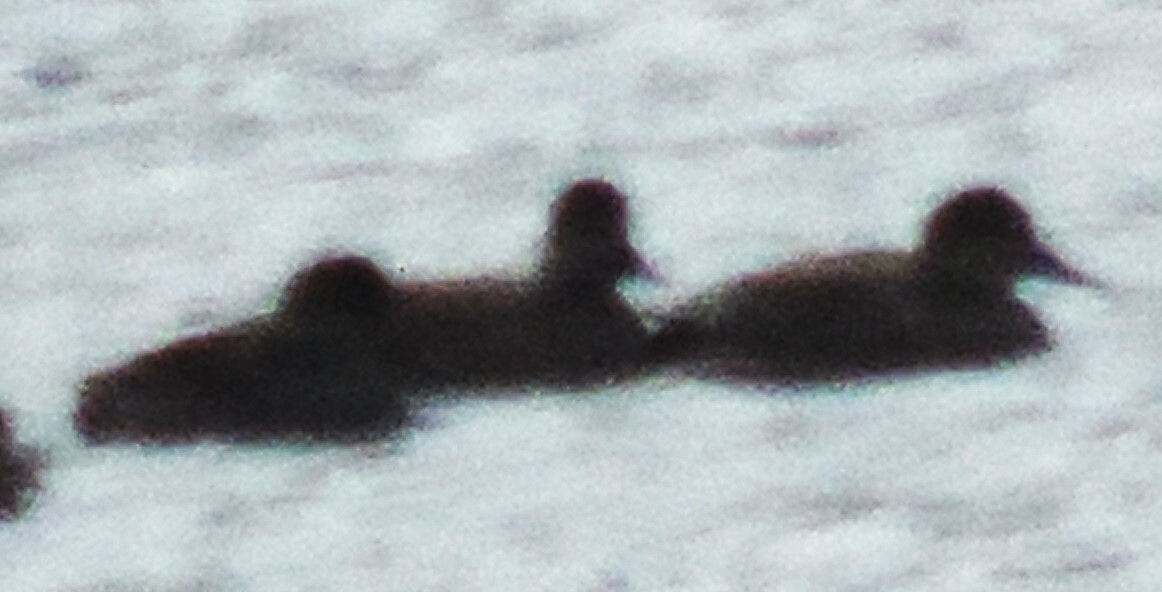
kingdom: Animalia
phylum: Chordata
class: Aves
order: Anseriformes
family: Anatidae
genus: Mareca
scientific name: Mareca strepera
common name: Gadwall
